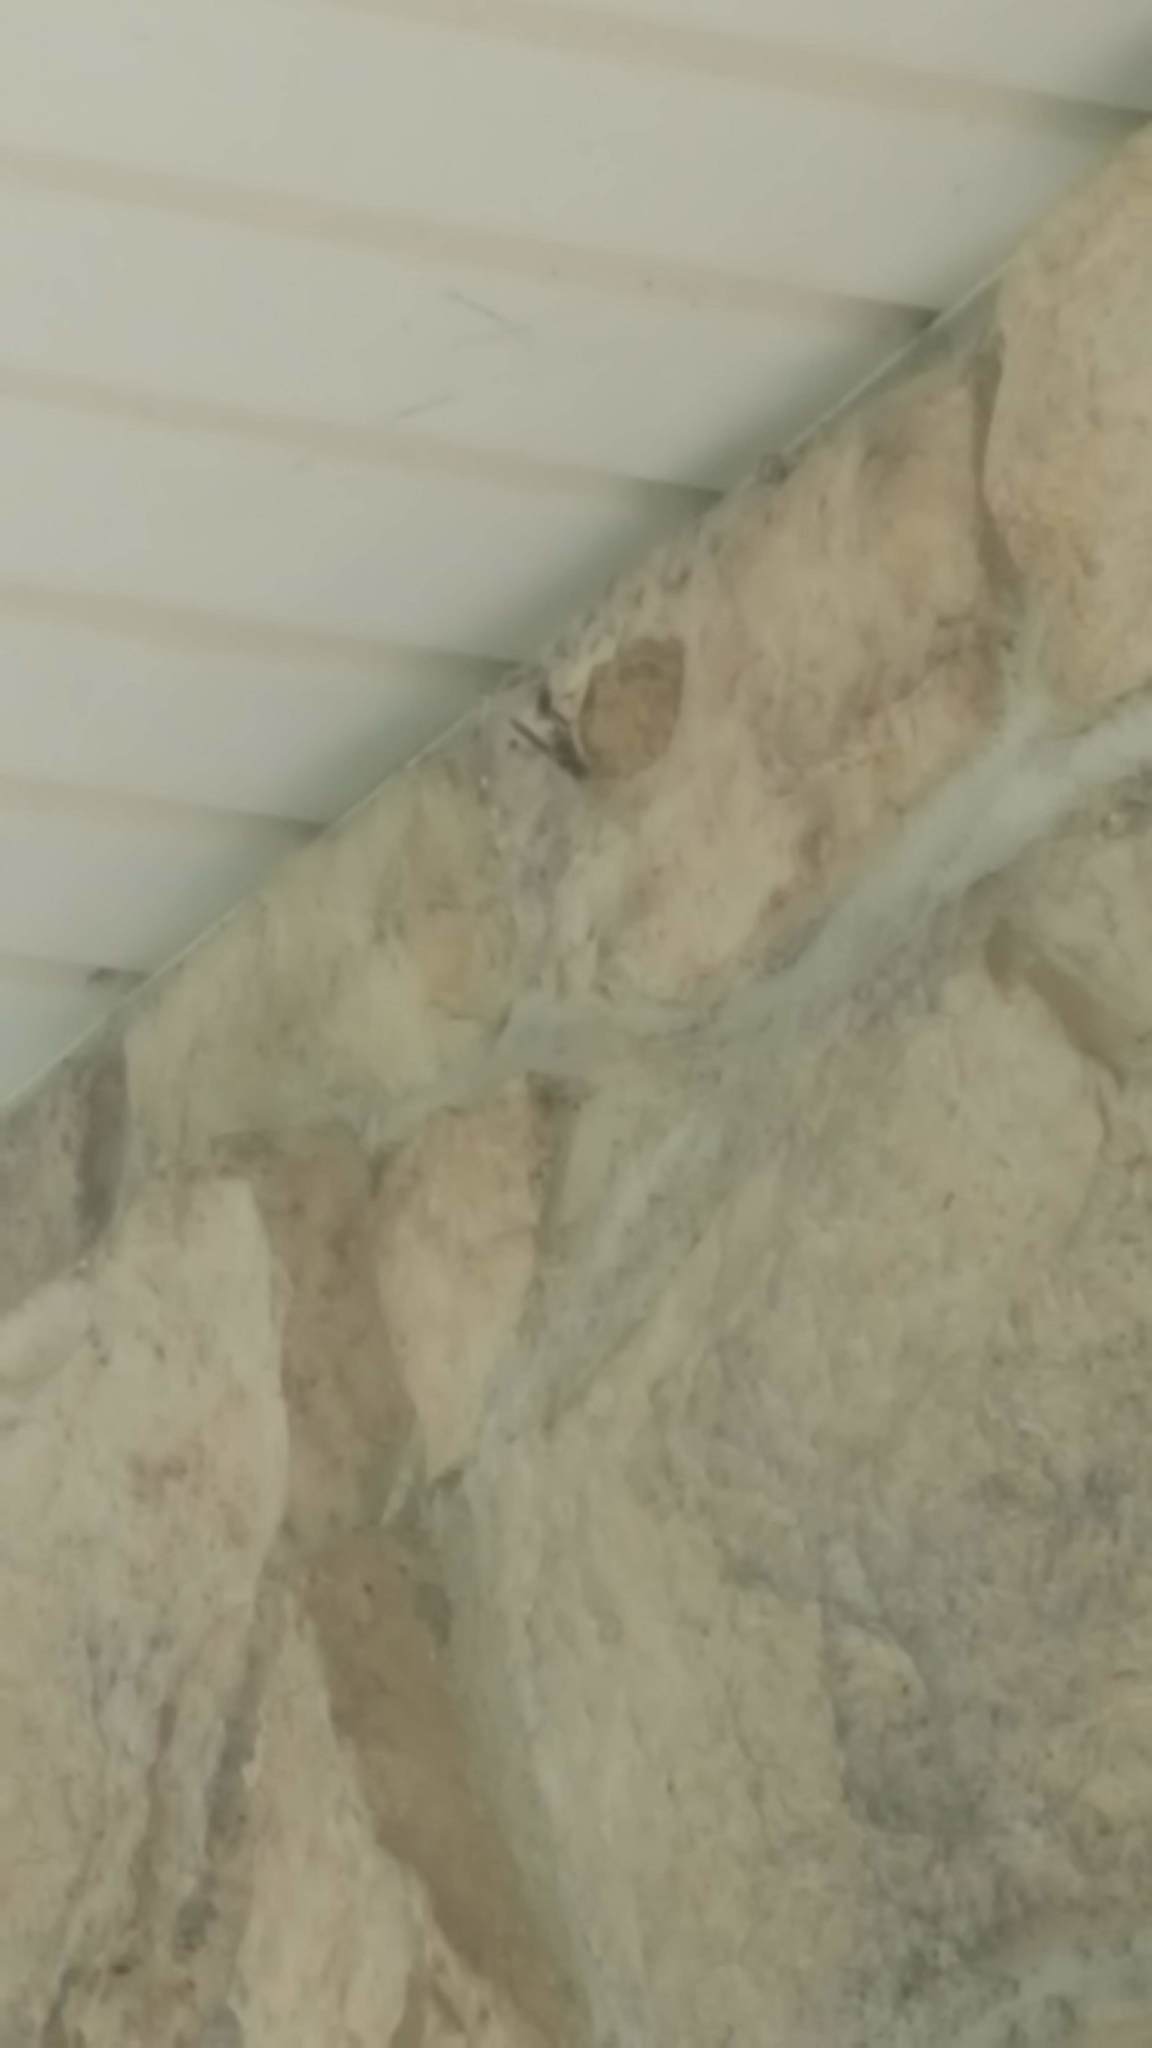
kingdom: Animalia
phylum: Arthropoda
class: Insecta
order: Hymenoptera
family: Sphecidae
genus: Sceliphron
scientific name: Sceliphron caementarium
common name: Mud dauber
